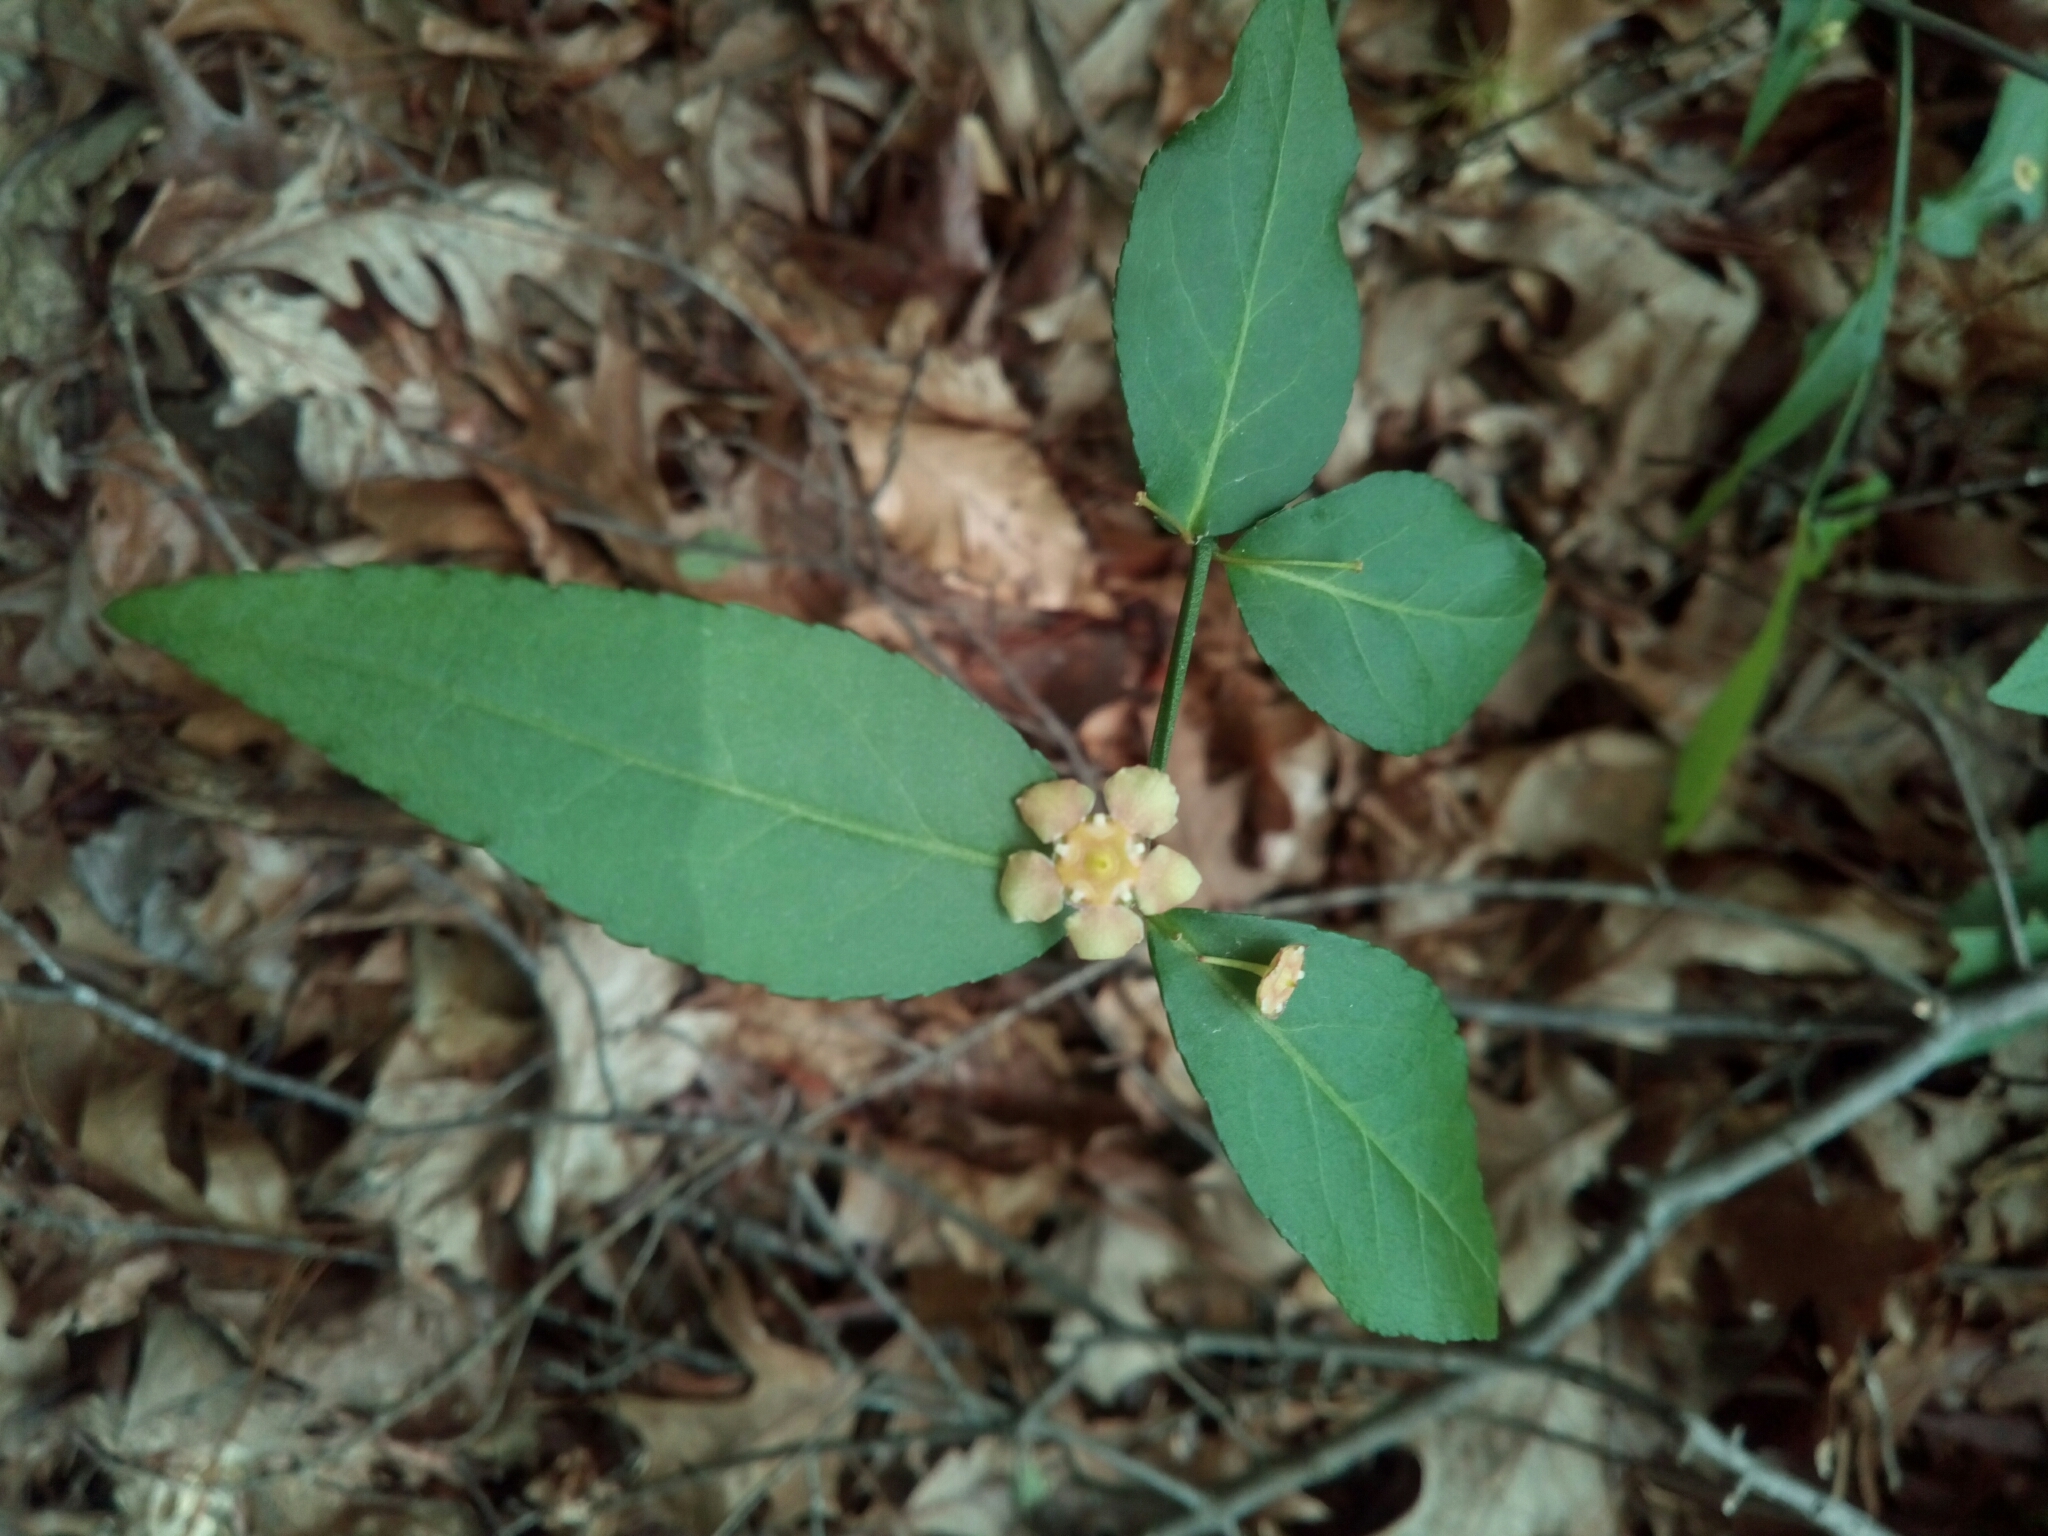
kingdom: Plantae
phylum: Tracheophyta
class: Magnoliopsida
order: Celastrales
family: Celastraceae
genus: Euonymus
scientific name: Euonymus americanus
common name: Bursting-heart
